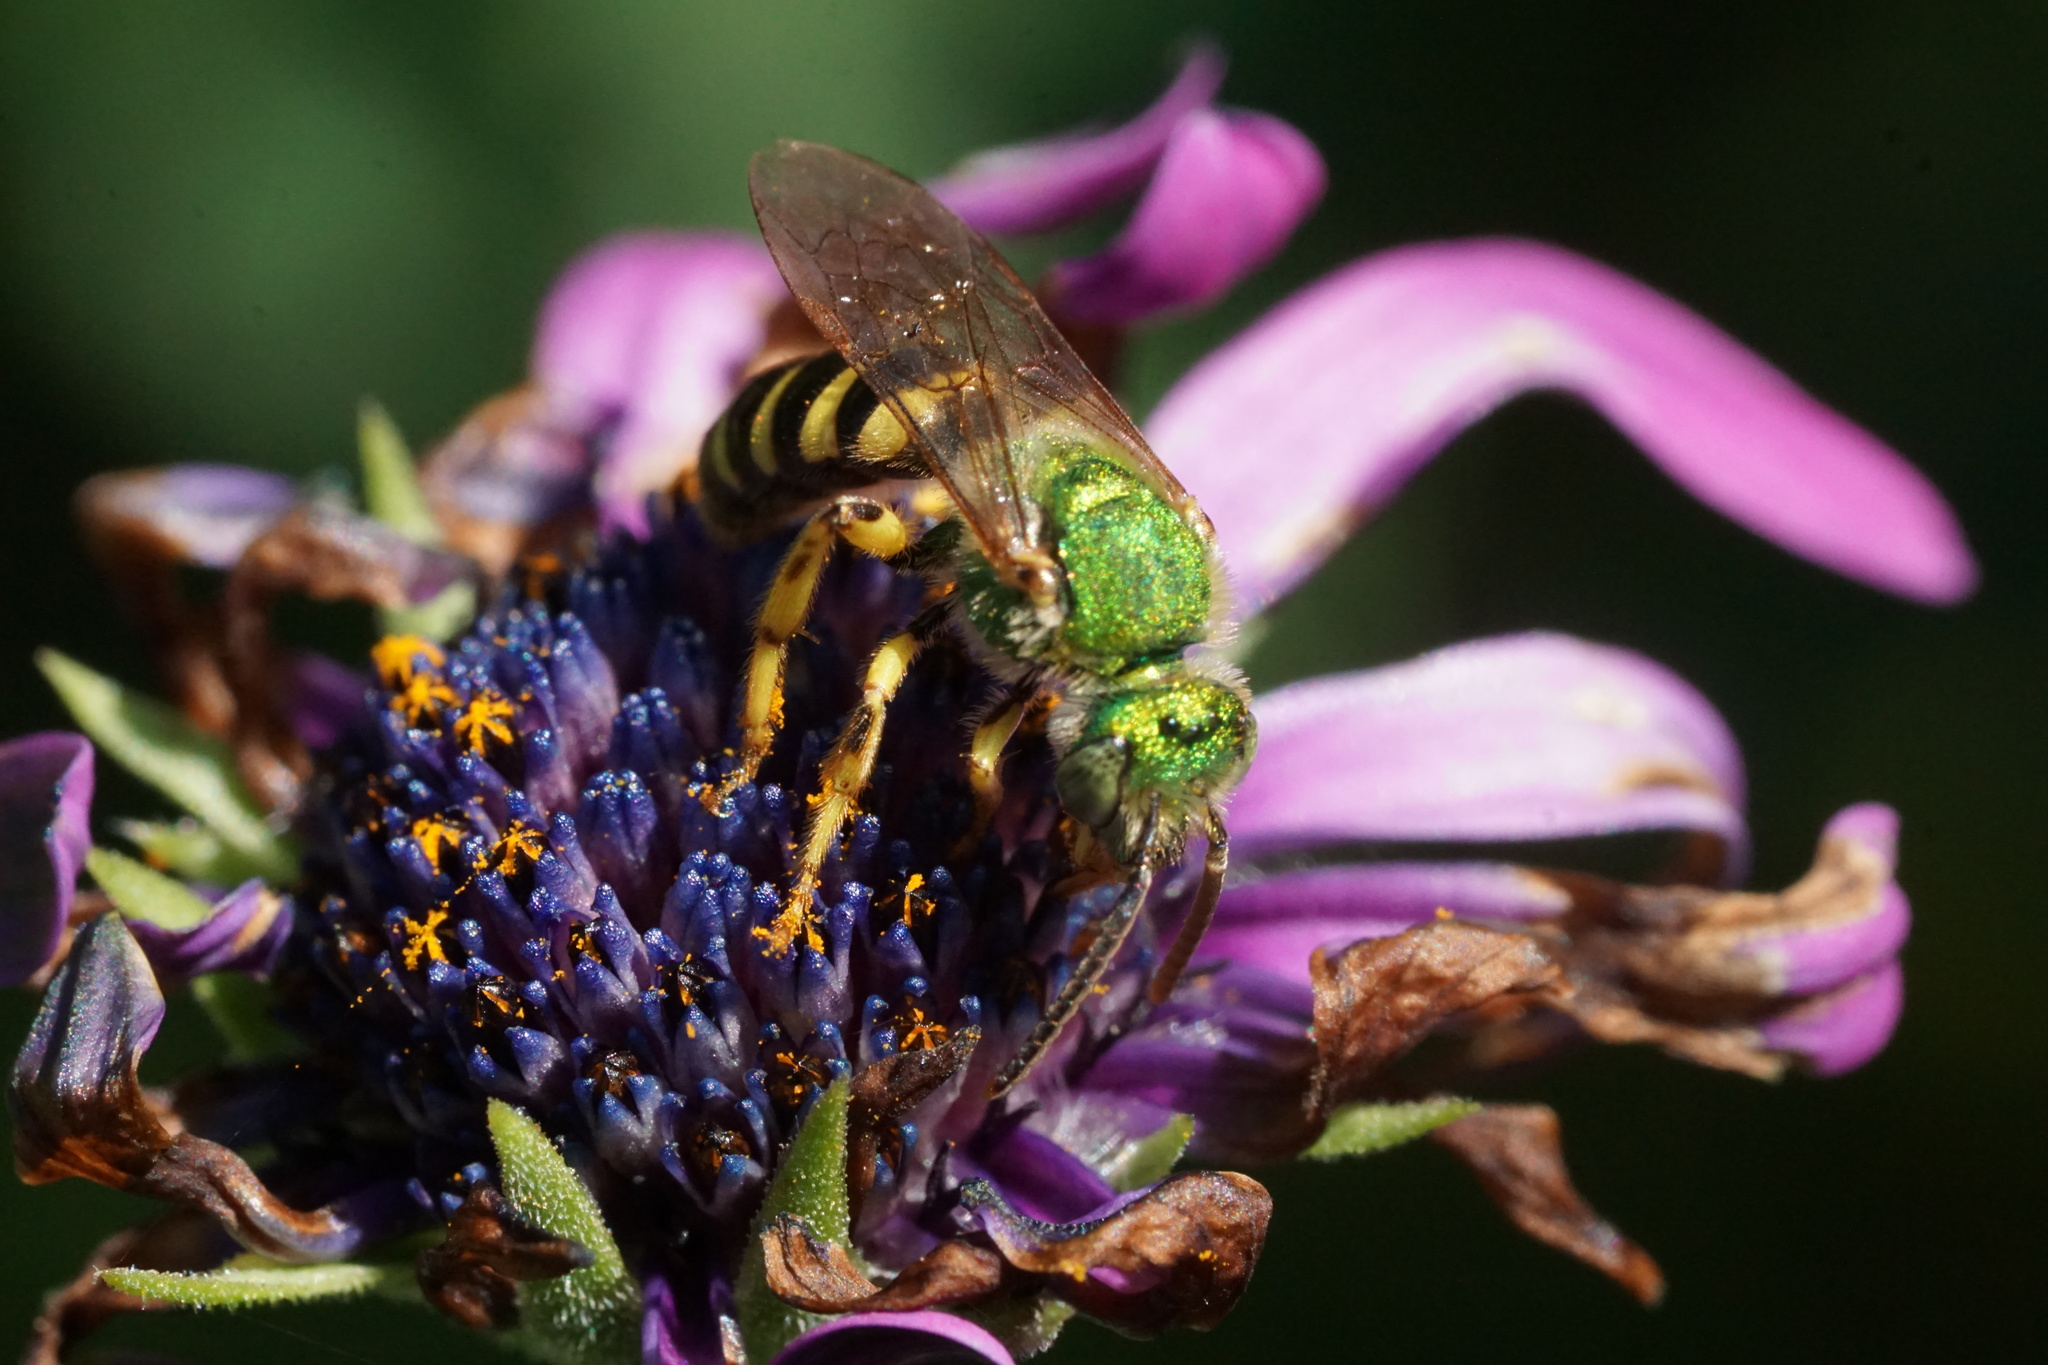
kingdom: Animalia
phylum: Arthropoda
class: Insecta
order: Hymenoptera
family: Halictidae
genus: Agapostemon
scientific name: Agapostemon virescens
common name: Bicolored striped sweat bee
